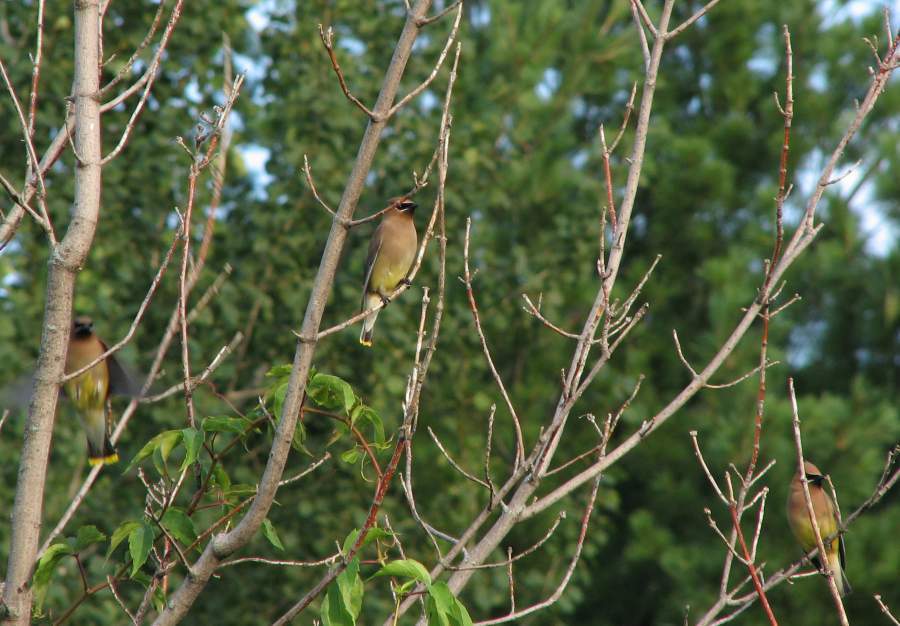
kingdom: Animalia
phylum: Chordata
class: Aves
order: Passeriformes
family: Bombycillidae
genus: Bombycilla
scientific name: Bombycilla cedrorum
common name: Cedar waxwing
